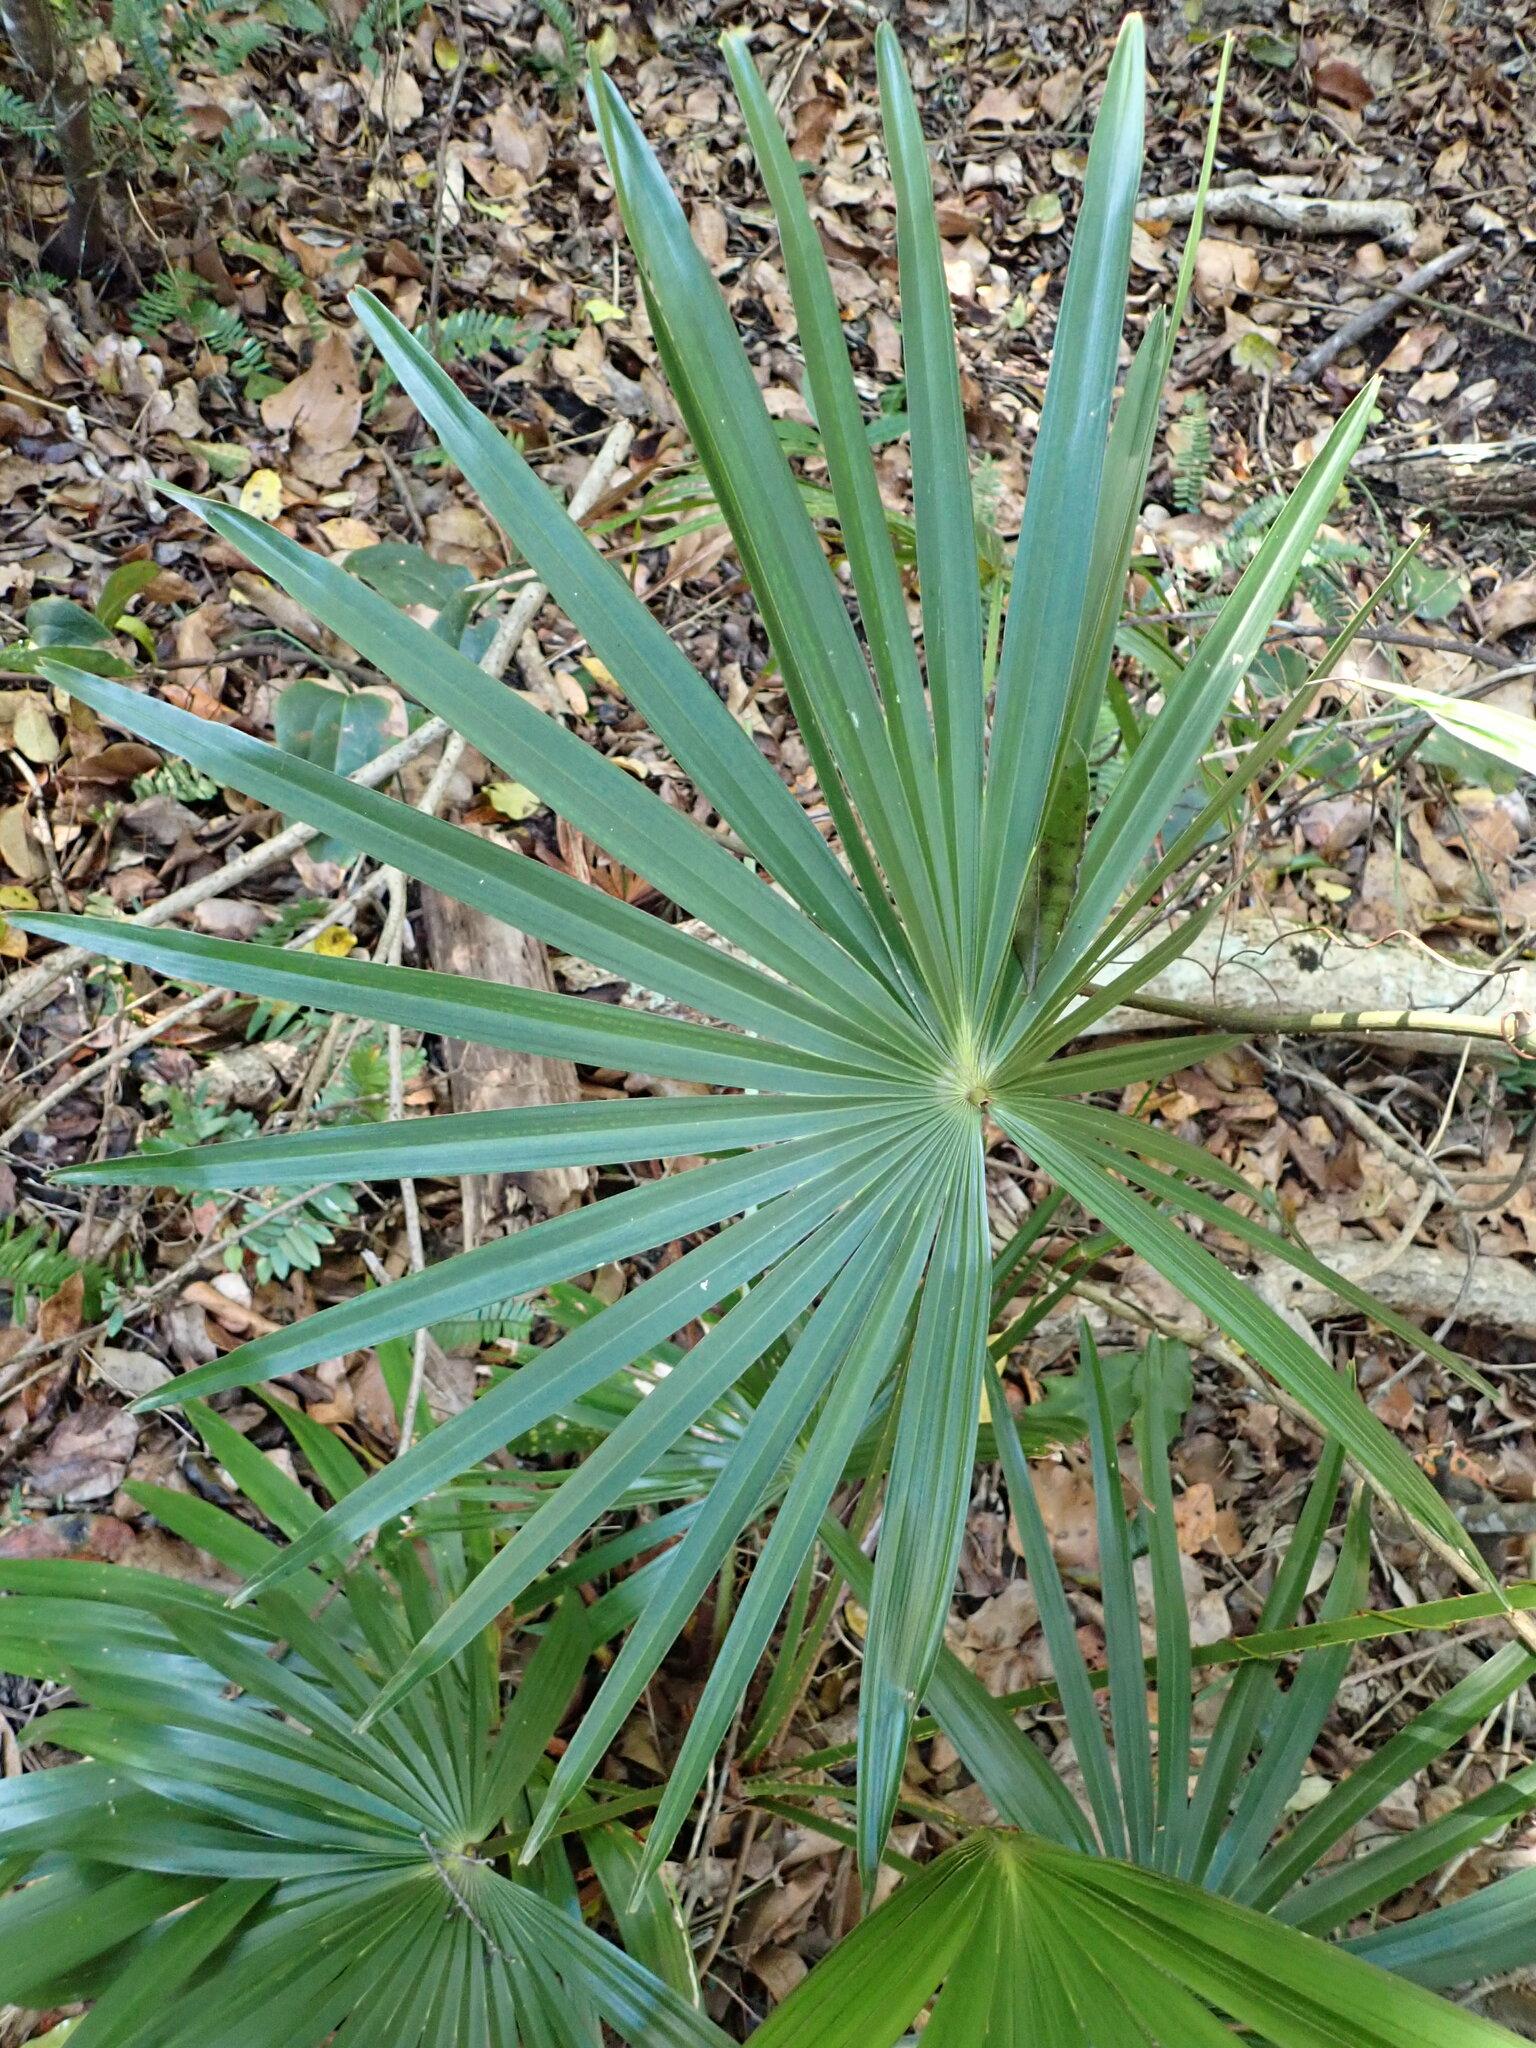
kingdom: Plantae
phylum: Tracheophyta
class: Liliopsida
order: Arecales
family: Arecaceae
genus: Livistona
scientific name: Livistona australis
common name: Cabbage fan palm
